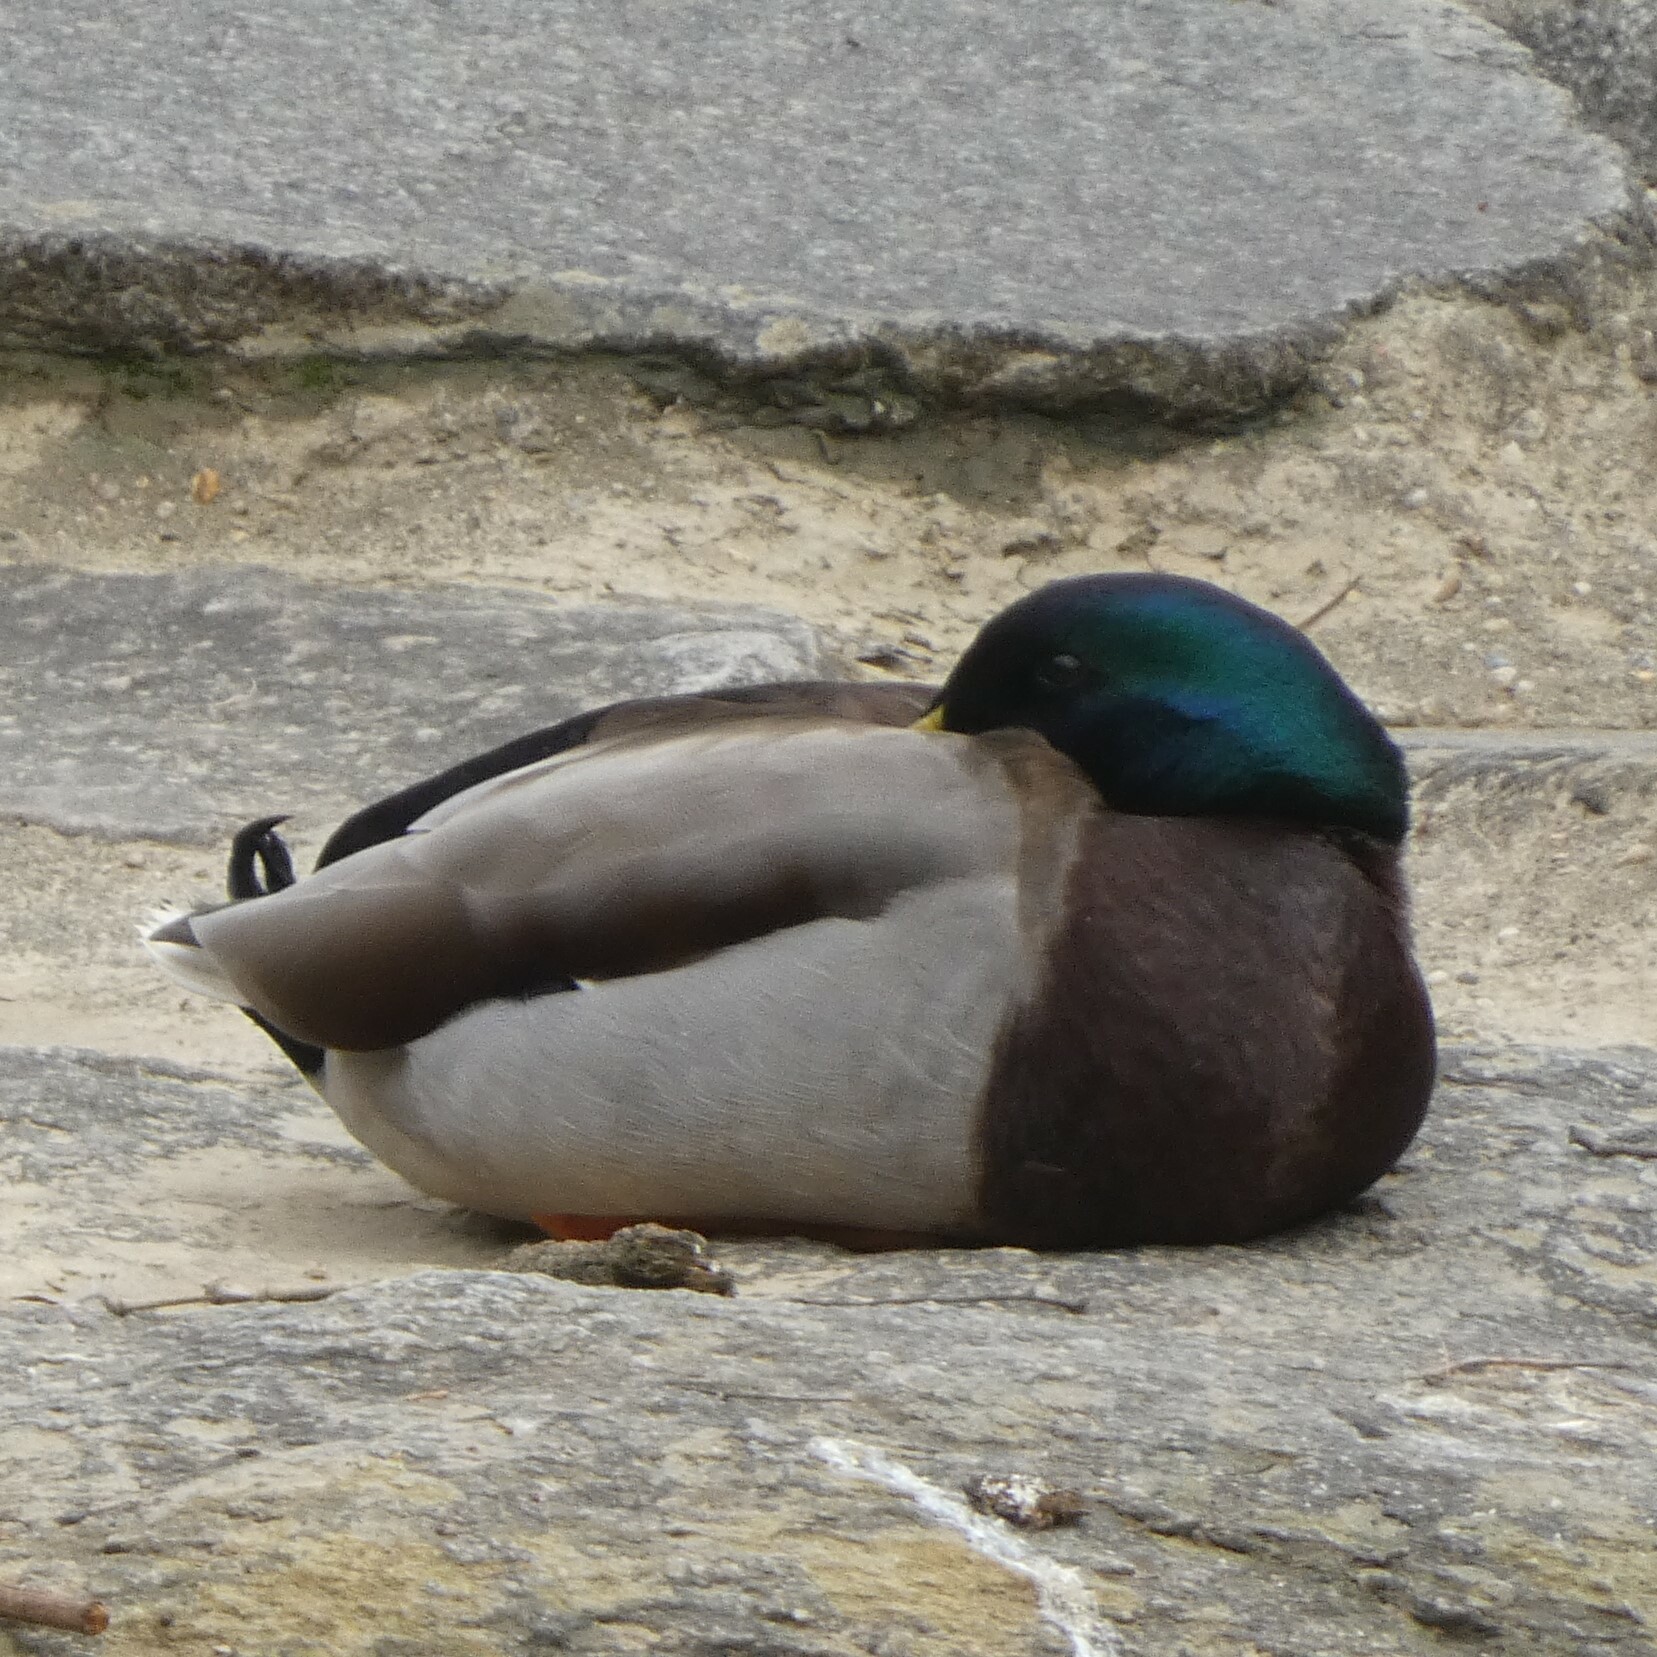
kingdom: Animalia
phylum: Chordata
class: Aves
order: Anseriformes
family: Anatidae
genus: Anas
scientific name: Anas platyrhynchos
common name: Mallard
